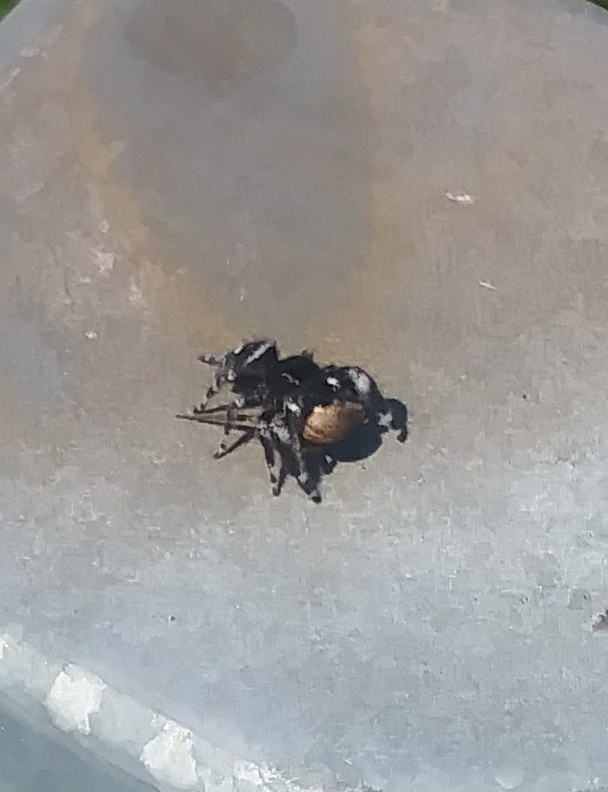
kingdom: Animalia
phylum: Arthropoda
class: Arachnida
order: Araneae
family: Salticidae
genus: Phidippus
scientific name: Phidippus audax
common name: Bold jumper
